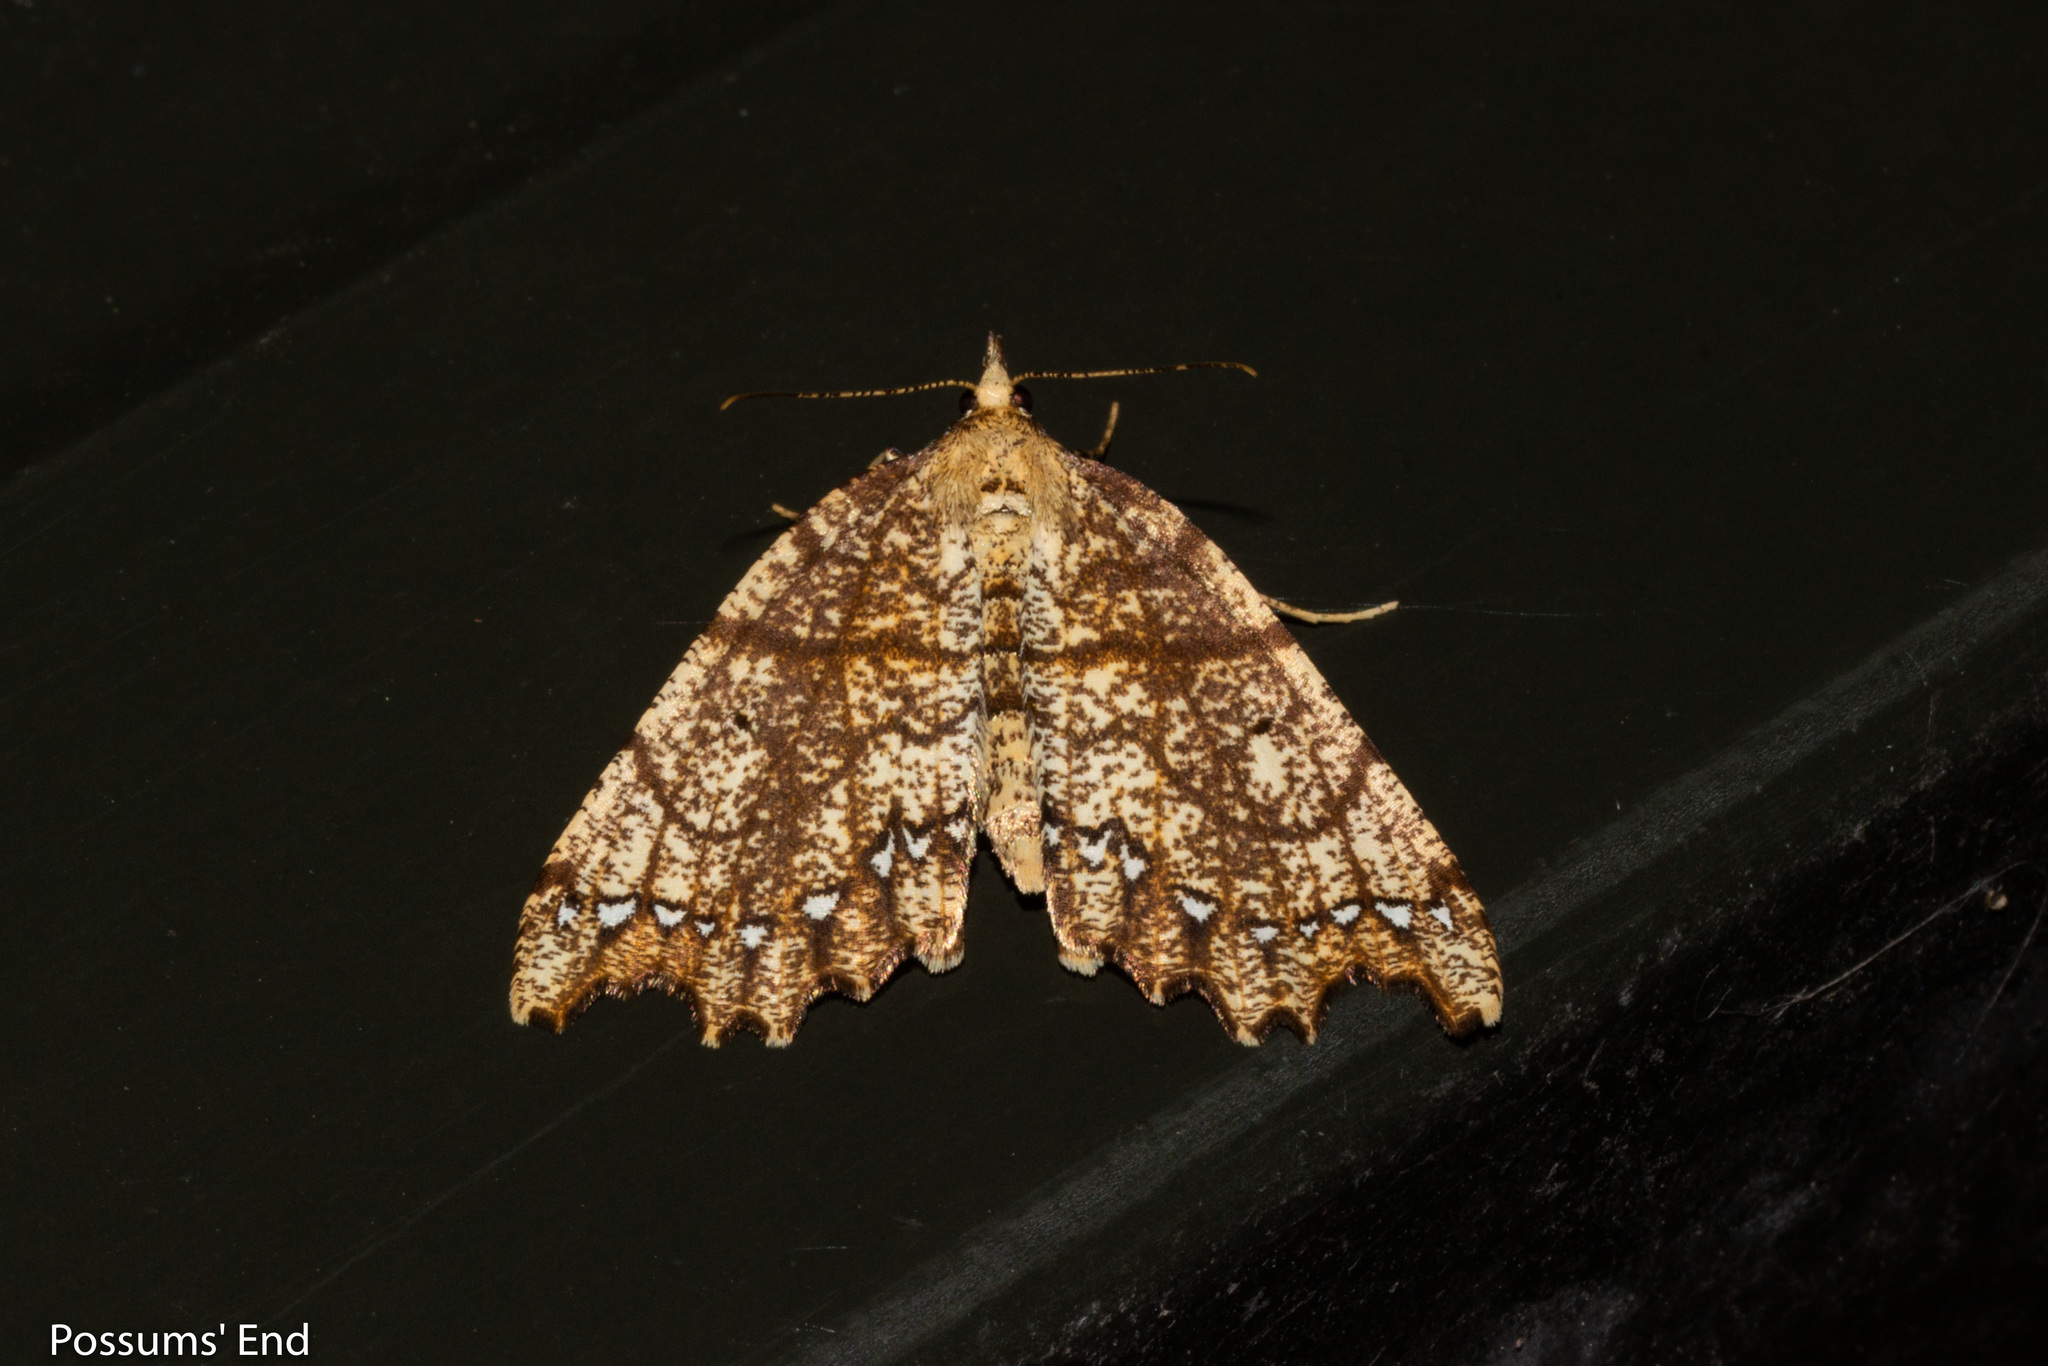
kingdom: Animalia
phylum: Arthropoda
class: Insecta
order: Lepidoptera
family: Geometridae
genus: Chalastra
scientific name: Chalastra pellurgata
